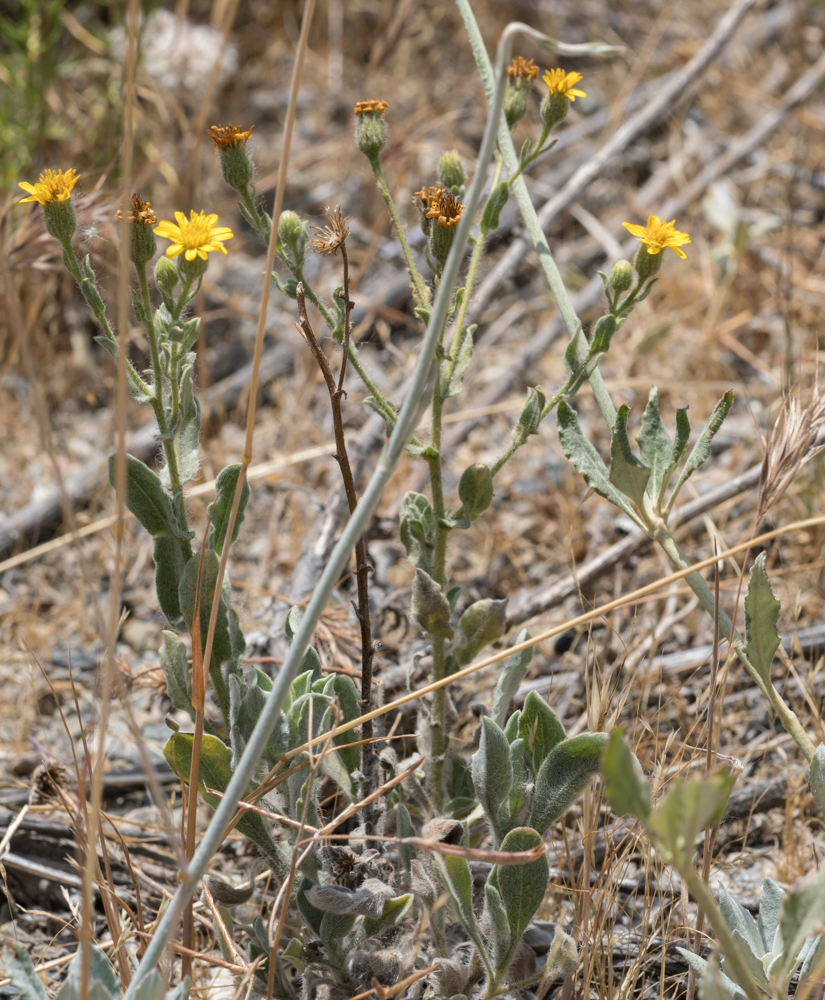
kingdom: Plantae
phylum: Tracheophyta
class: Magnoliopsida
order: Asterales
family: Asteraceae
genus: Heterotheca
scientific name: Heterotheca grandiflora
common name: Telegraphweed
